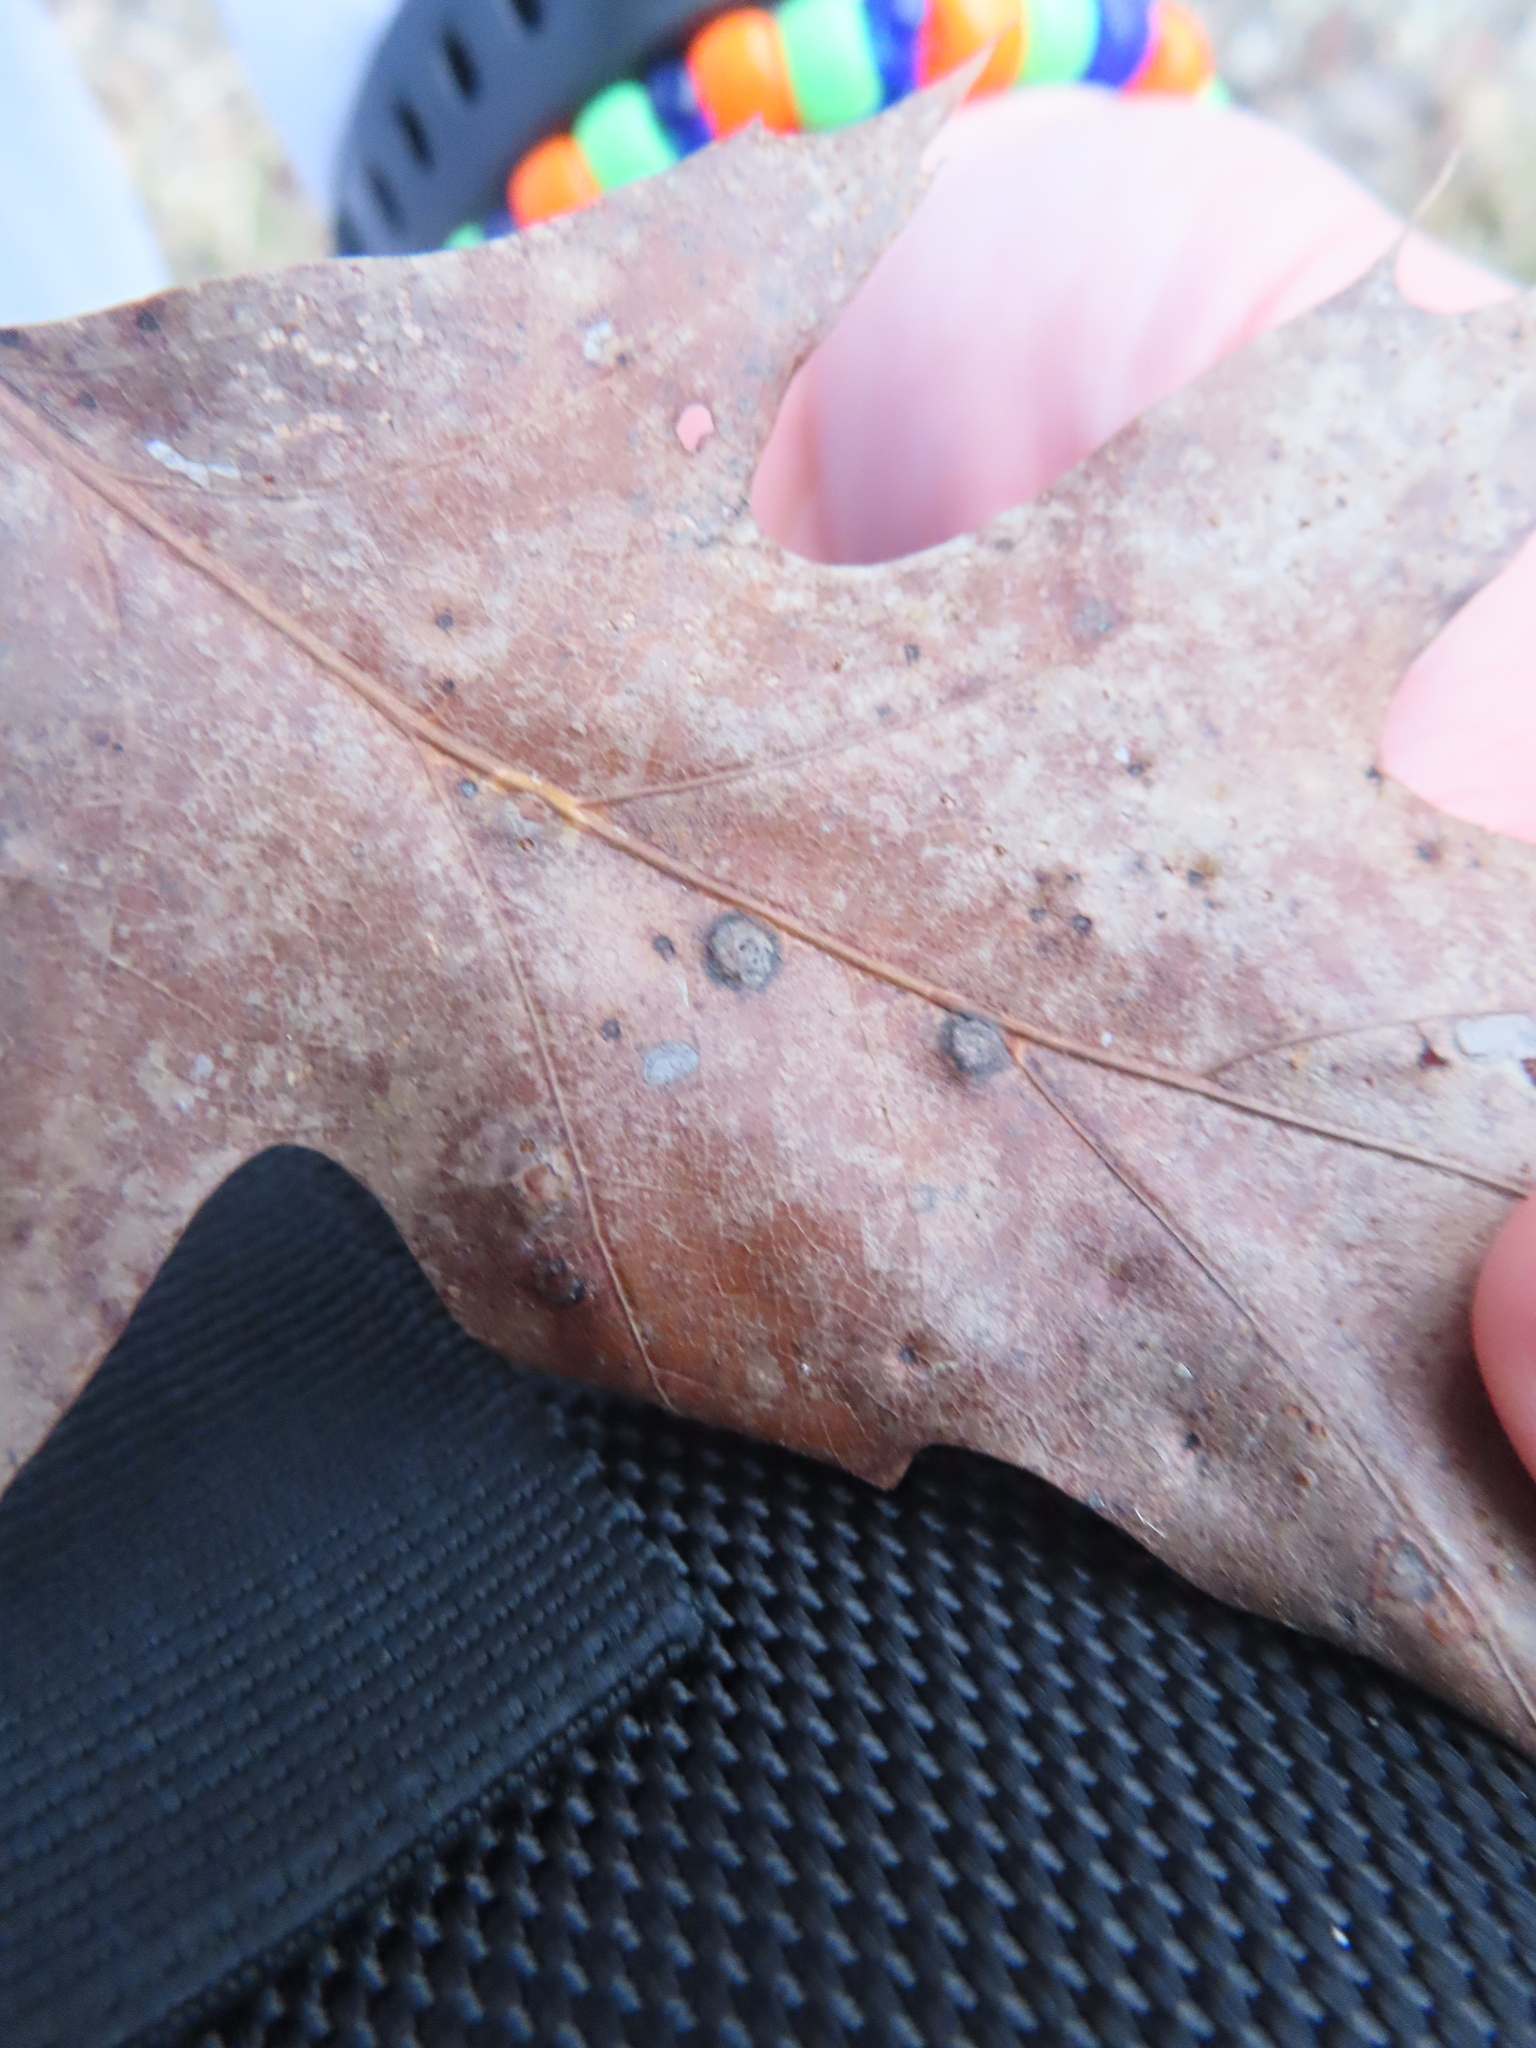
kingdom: Animalia
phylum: Arthropoda
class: Insecta
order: Diptera
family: Cecidomyiidae
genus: Polystepha
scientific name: Polystepha globosa
